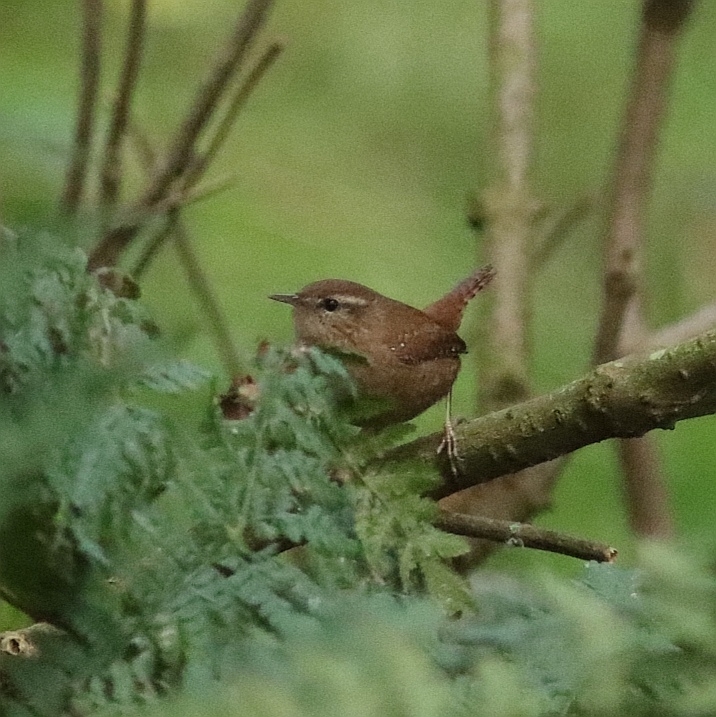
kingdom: Animalia
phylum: Chordata
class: Aves
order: Passeriformes
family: Troglodytidae
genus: Troglodytes
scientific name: Troglodytes troglodytes
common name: Eurasian wren
